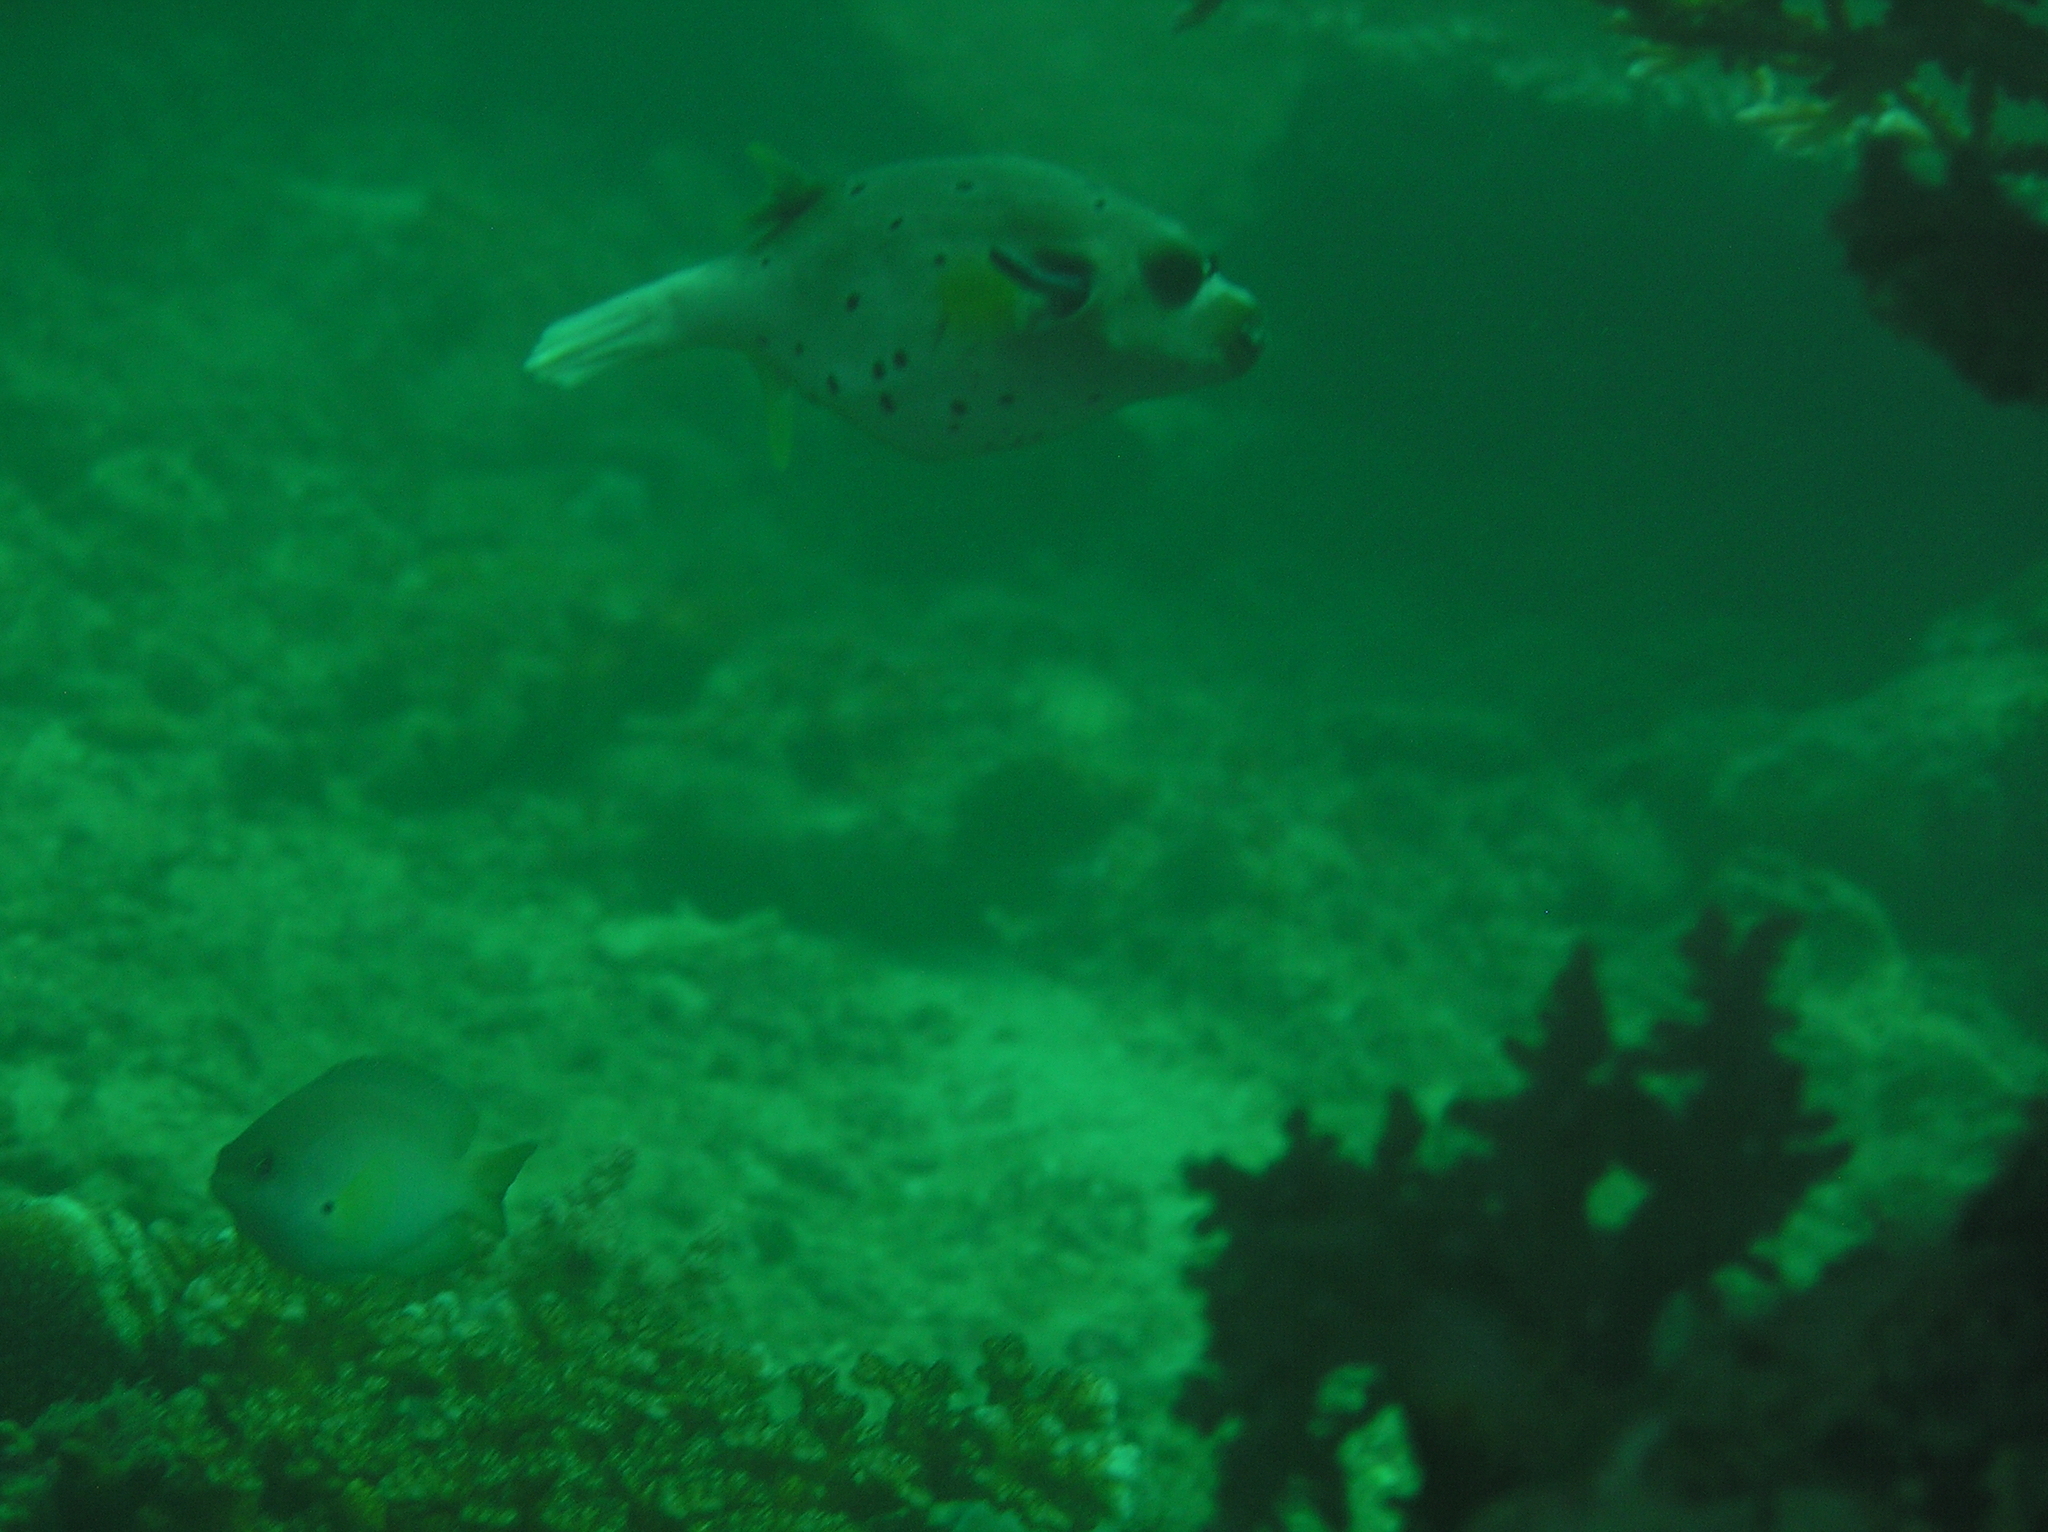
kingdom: Animalia
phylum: Chordata
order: Tetraodontiformes
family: Tetraodontidae
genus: Arothron
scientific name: Arothron nigropunctatus
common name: Black spotted blow fish
